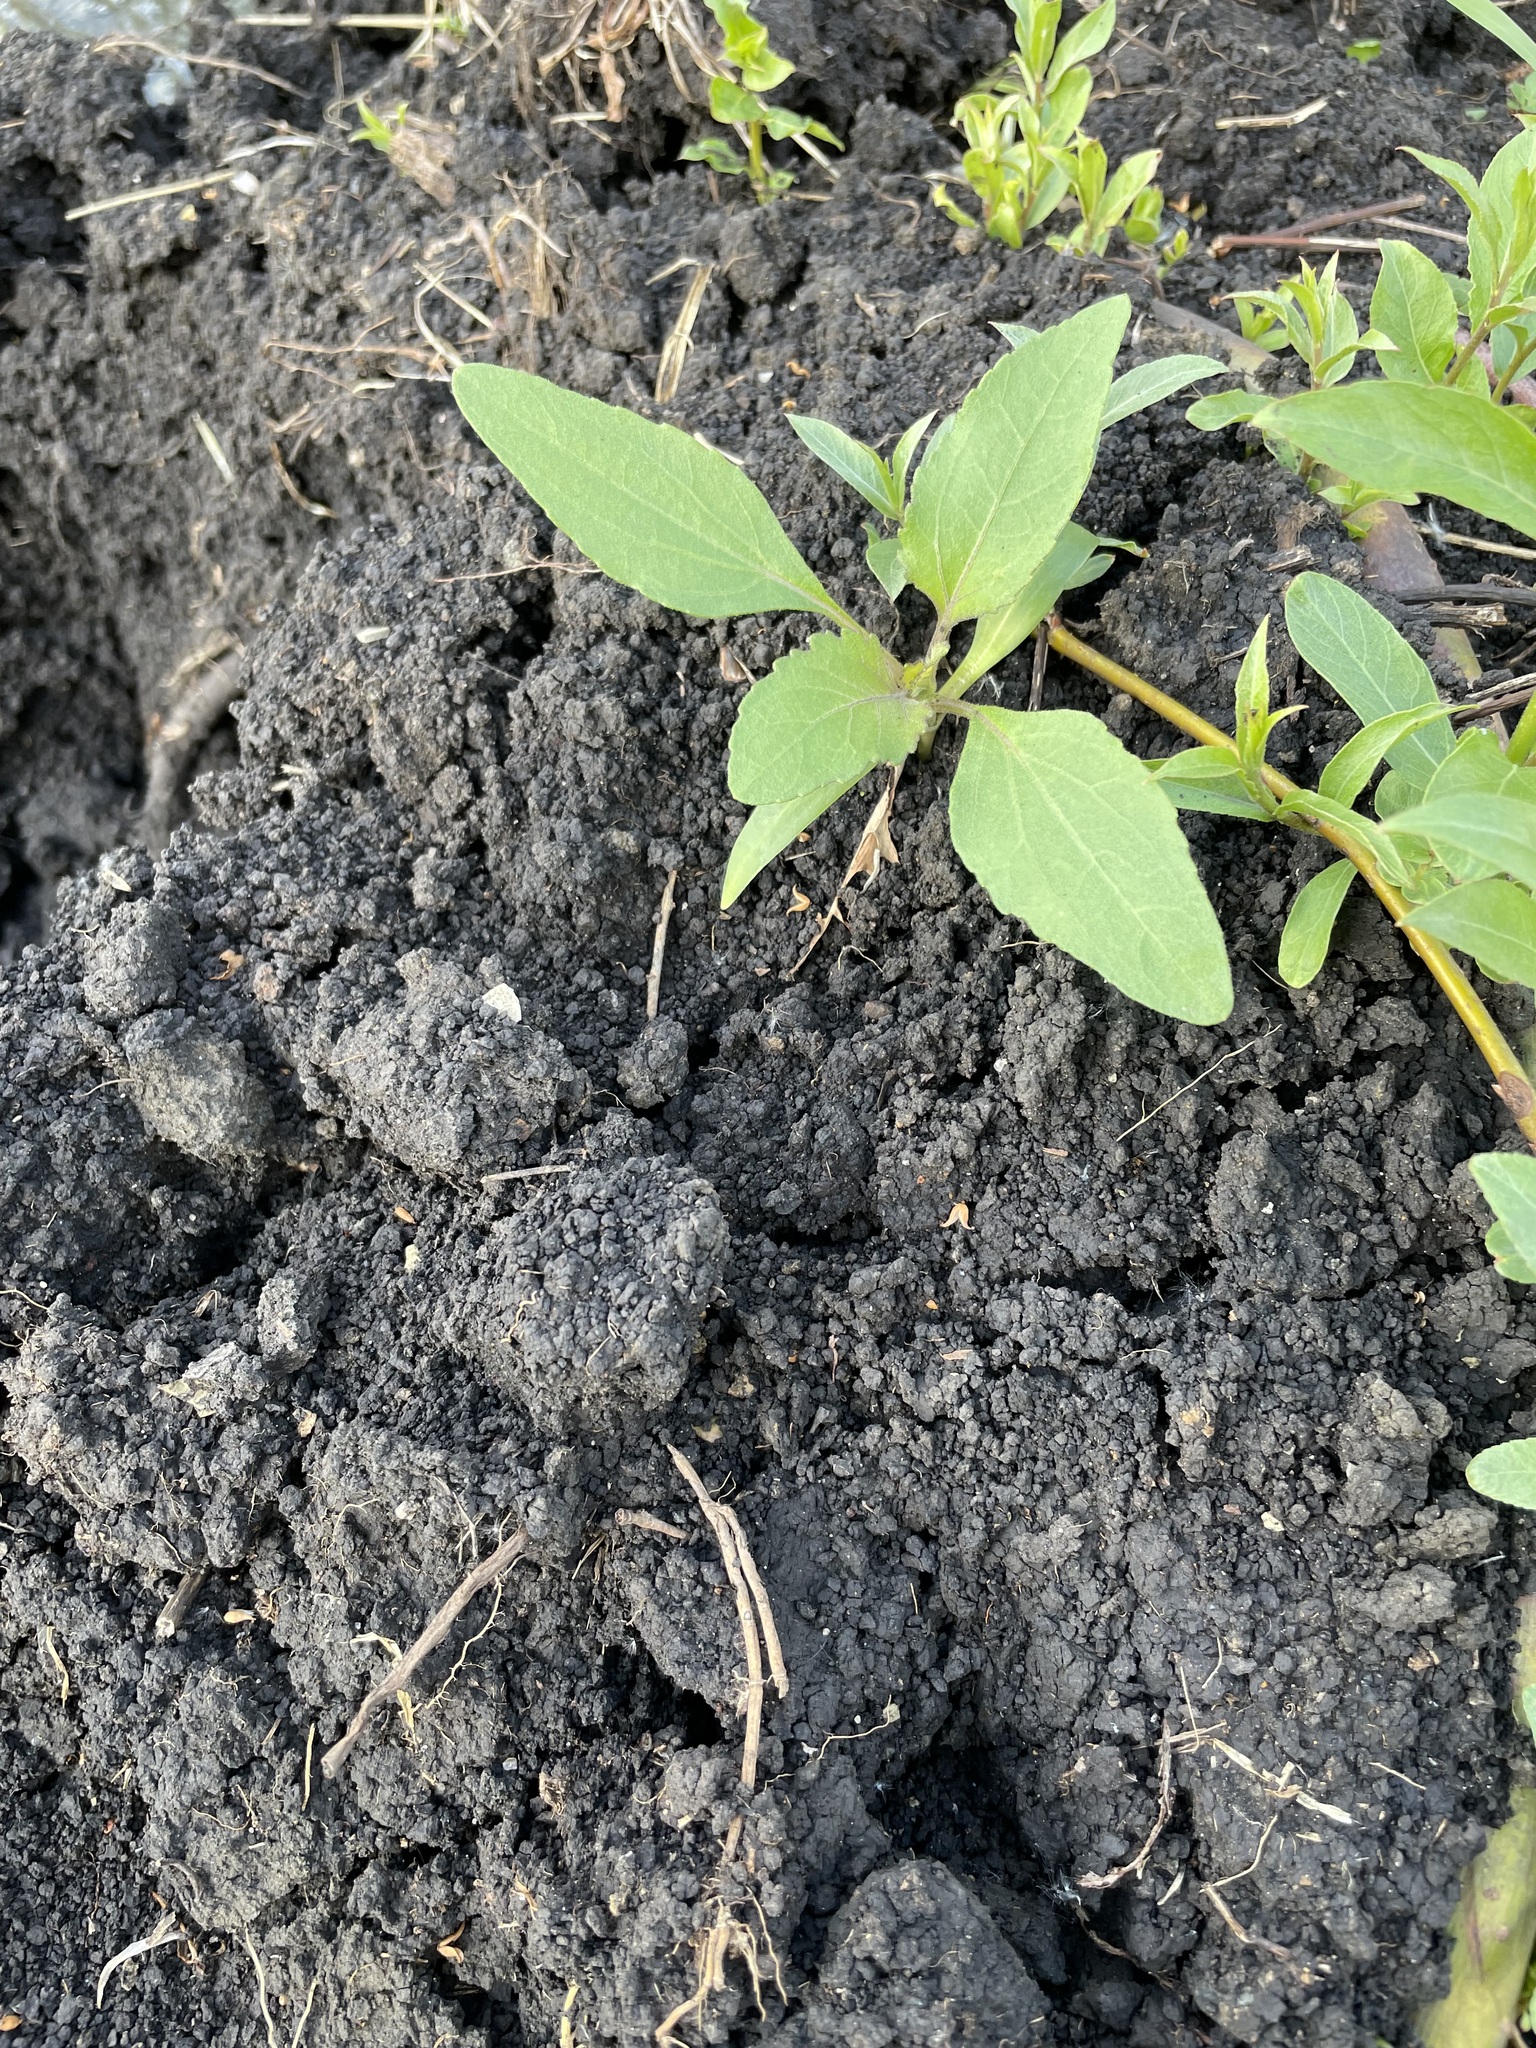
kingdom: Plantae
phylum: Tracheophyta
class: Magnoliopsida
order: Asterales
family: Asteraceae
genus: Xanthium
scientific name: Xanthium orientale
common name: Californian burr
